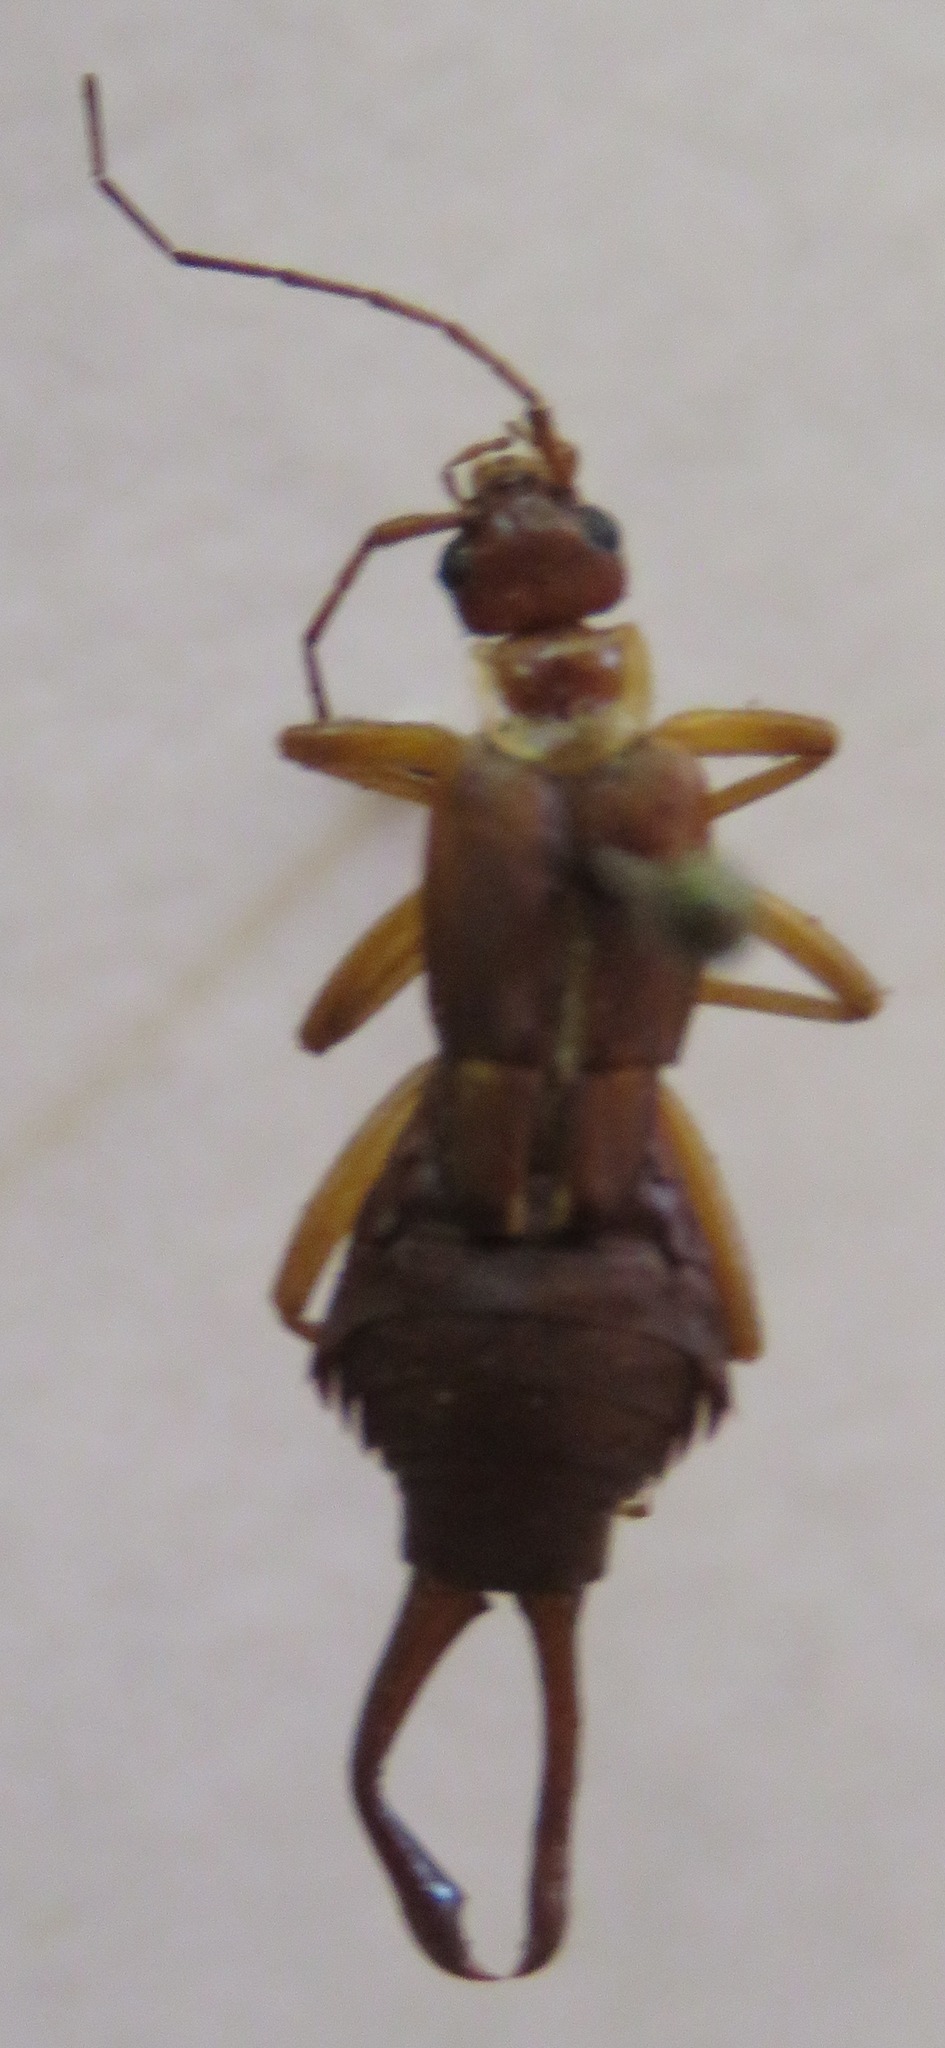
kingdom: Animalia
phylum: Arthropoda
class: Insecta
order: Dermaptera
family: Forficulidae
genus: Ancistrogaster
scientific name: Ancistrogaster luctuosus
